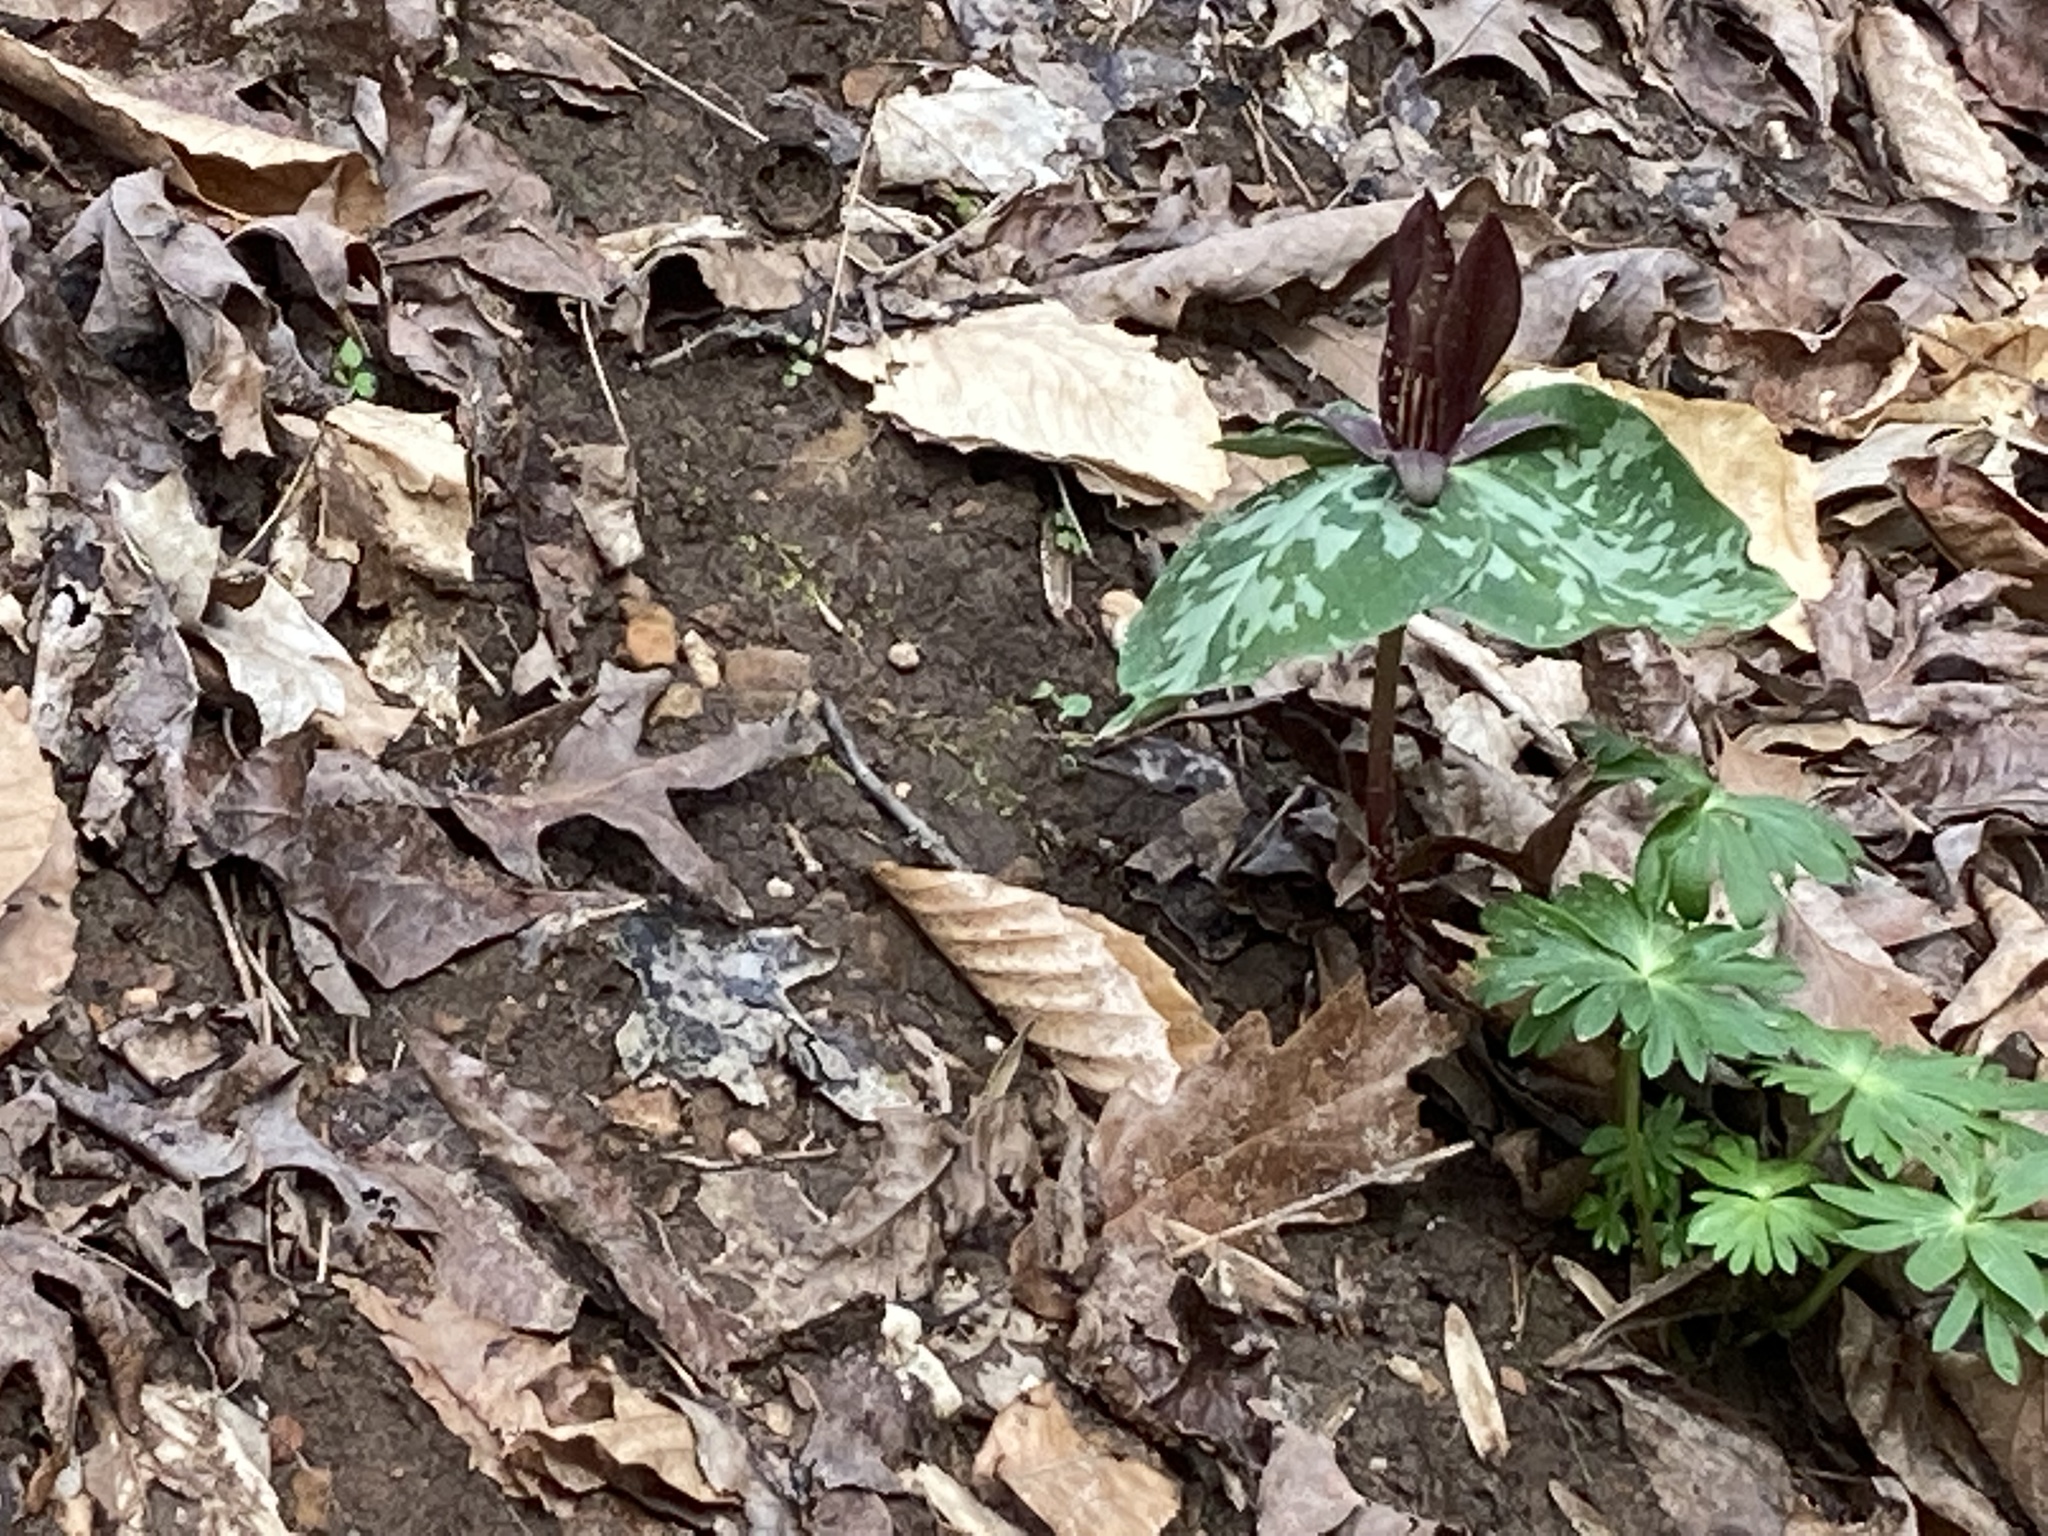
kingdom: Plantae
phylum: Tracheophyta
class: Liliopsida
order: Liliales
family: Melanthiaceae
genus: Trillium
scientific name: Trillium cuneatum
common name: Cuneate trillium
